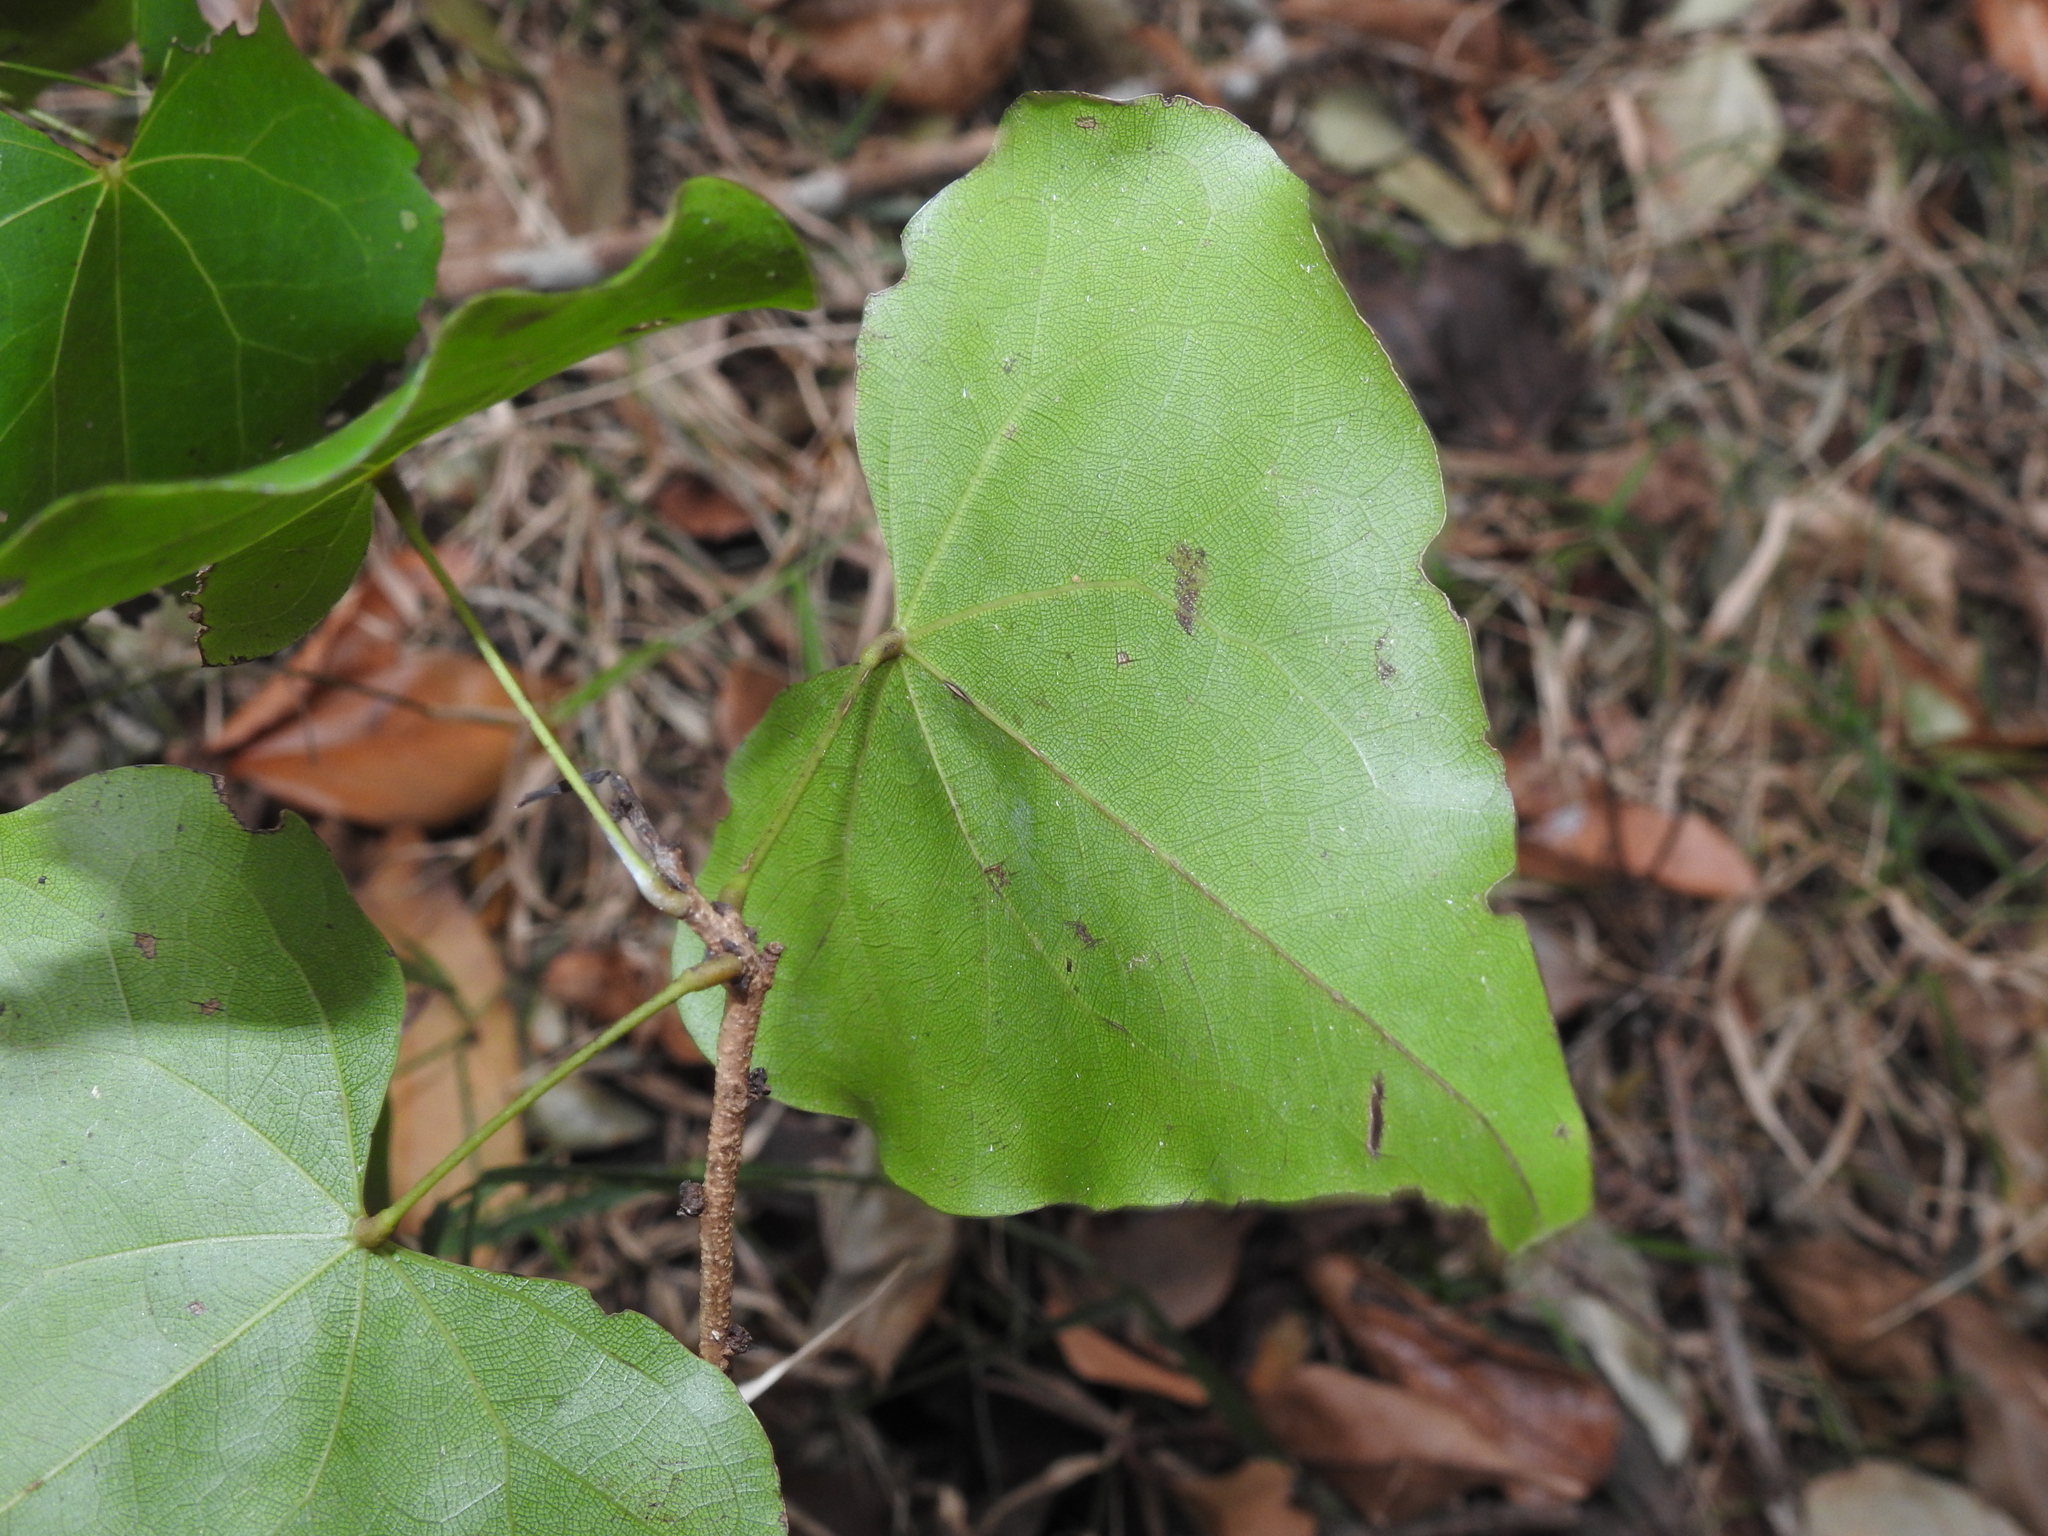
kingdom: Plantae
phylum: Tracheophyta
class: Magnoliopsida
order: Fabales
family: Fabaceae
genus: Barklya
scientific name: Barklya syringifolia
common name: Crown-of-gold-tree
